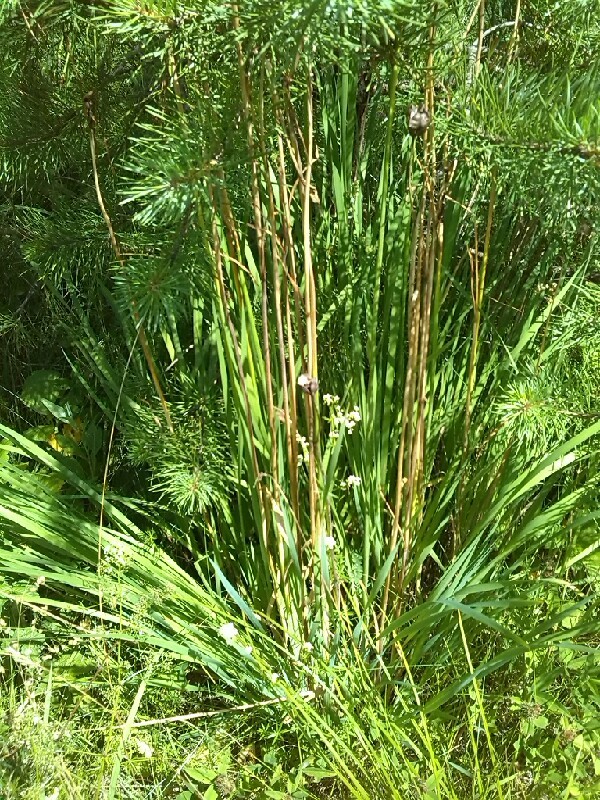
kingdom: Plantae
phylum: Tracheophyta
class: Liliopsida
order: Asparagales
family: Iridaceae
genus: Iris
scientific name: Iris sibirica
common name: Siberian iris
